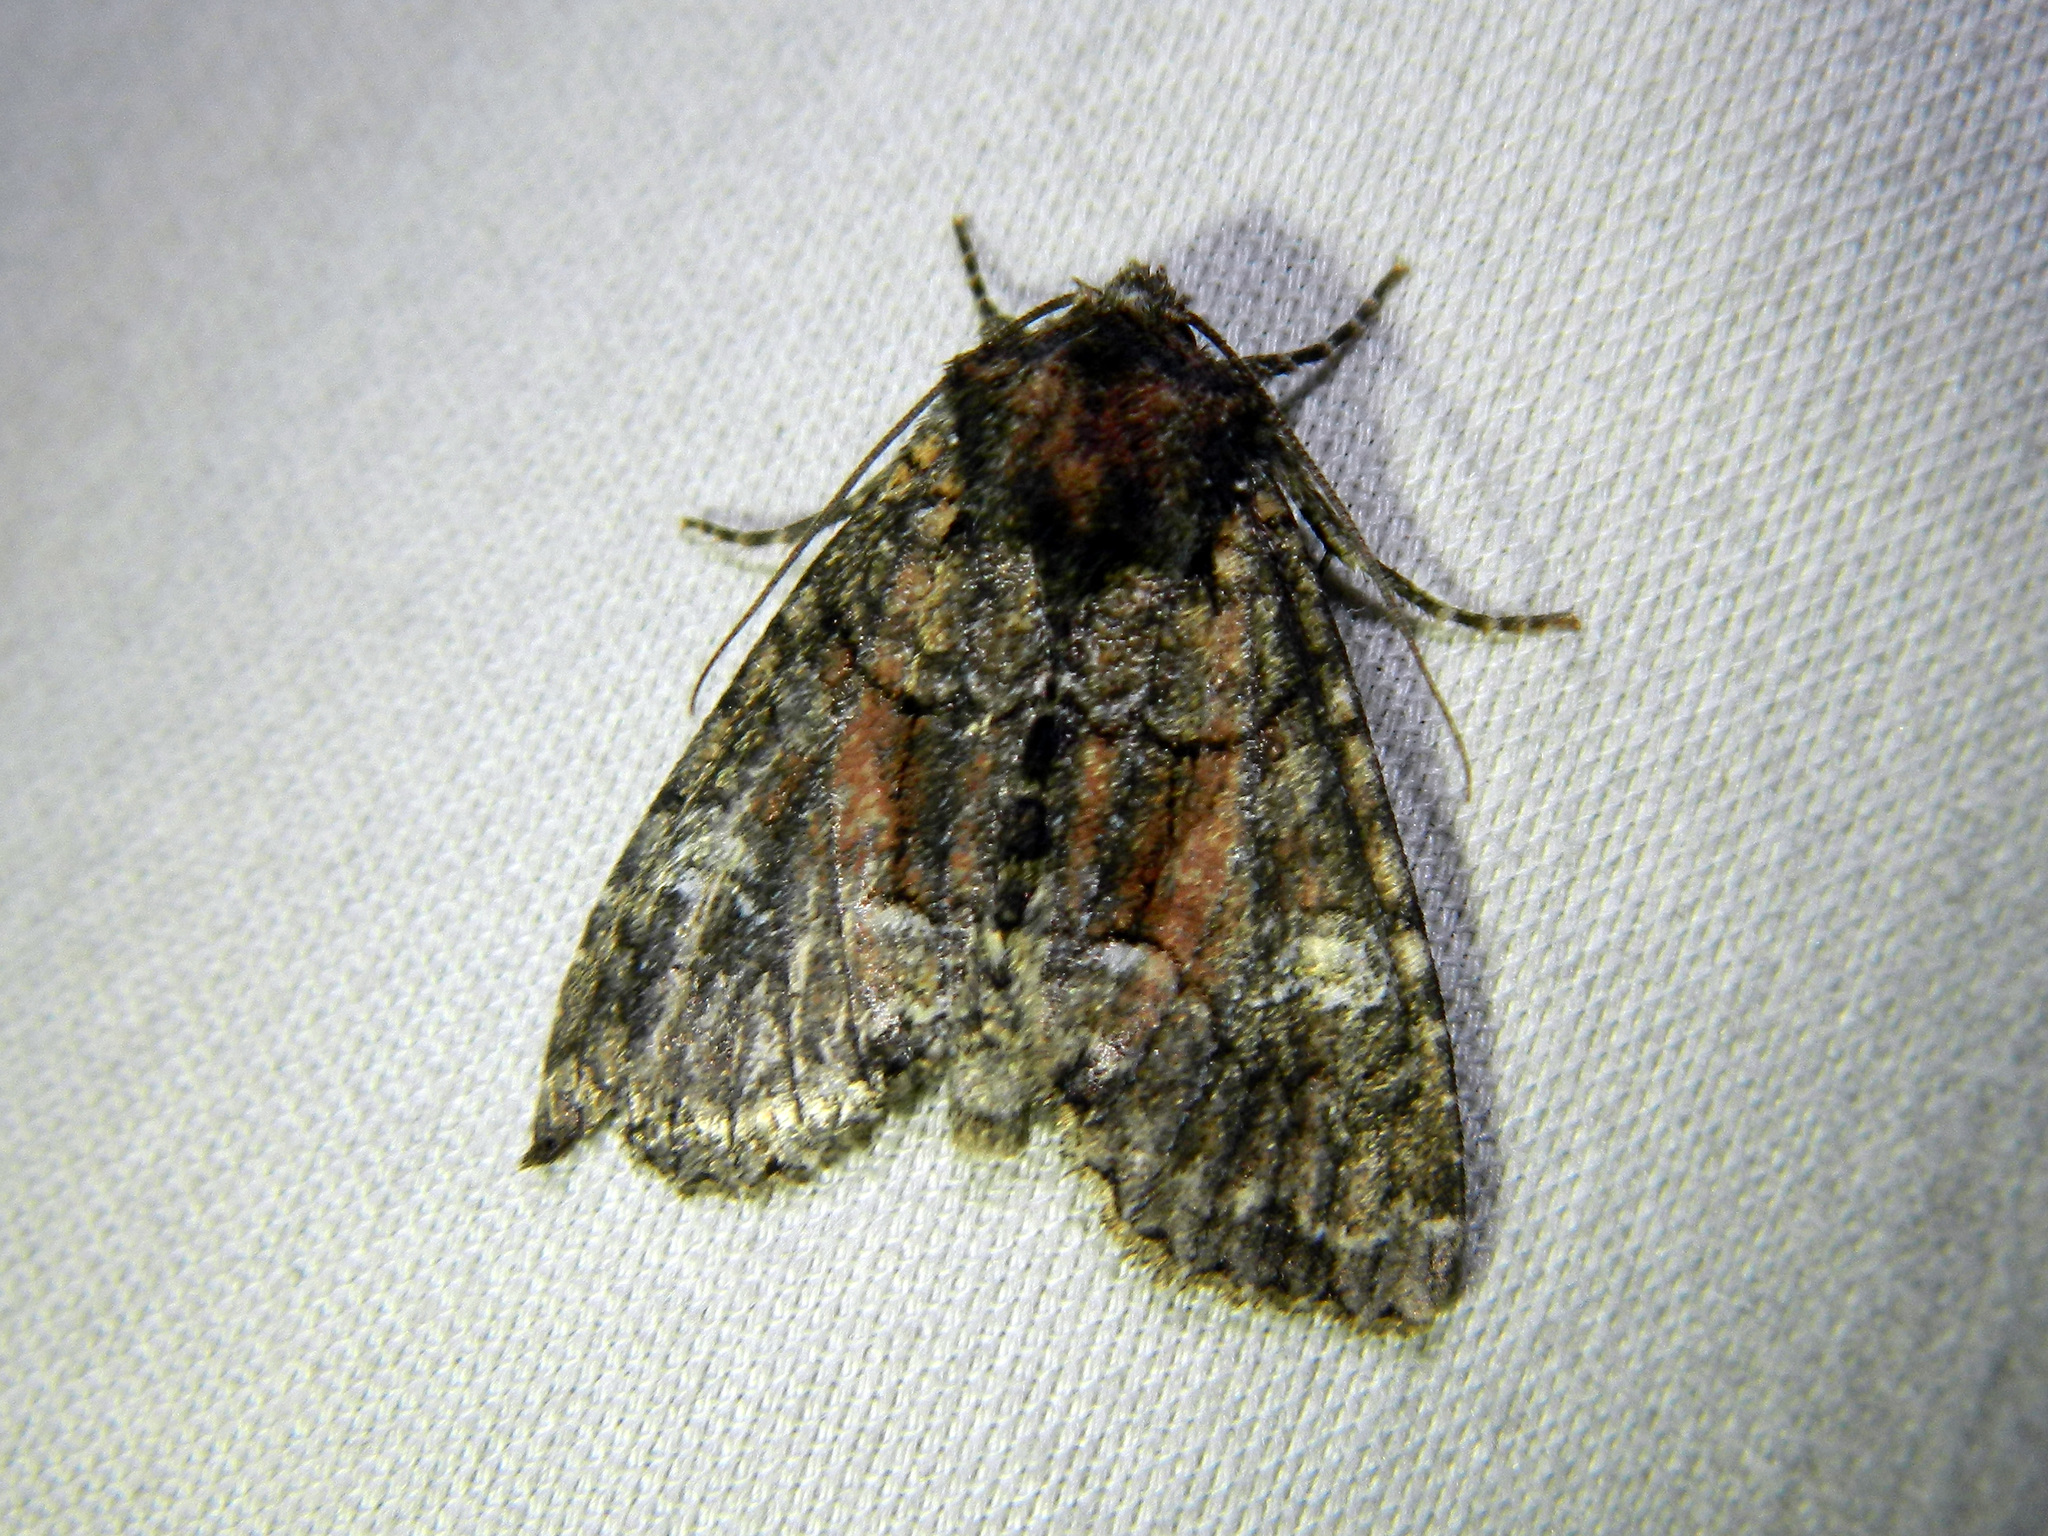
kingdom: Animalia
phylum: Arthropoda
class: Insecta
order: Lepidoptera
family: Noctuidae
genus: Fishia
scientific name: Fishia illocata
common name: Wandering brocade moth
